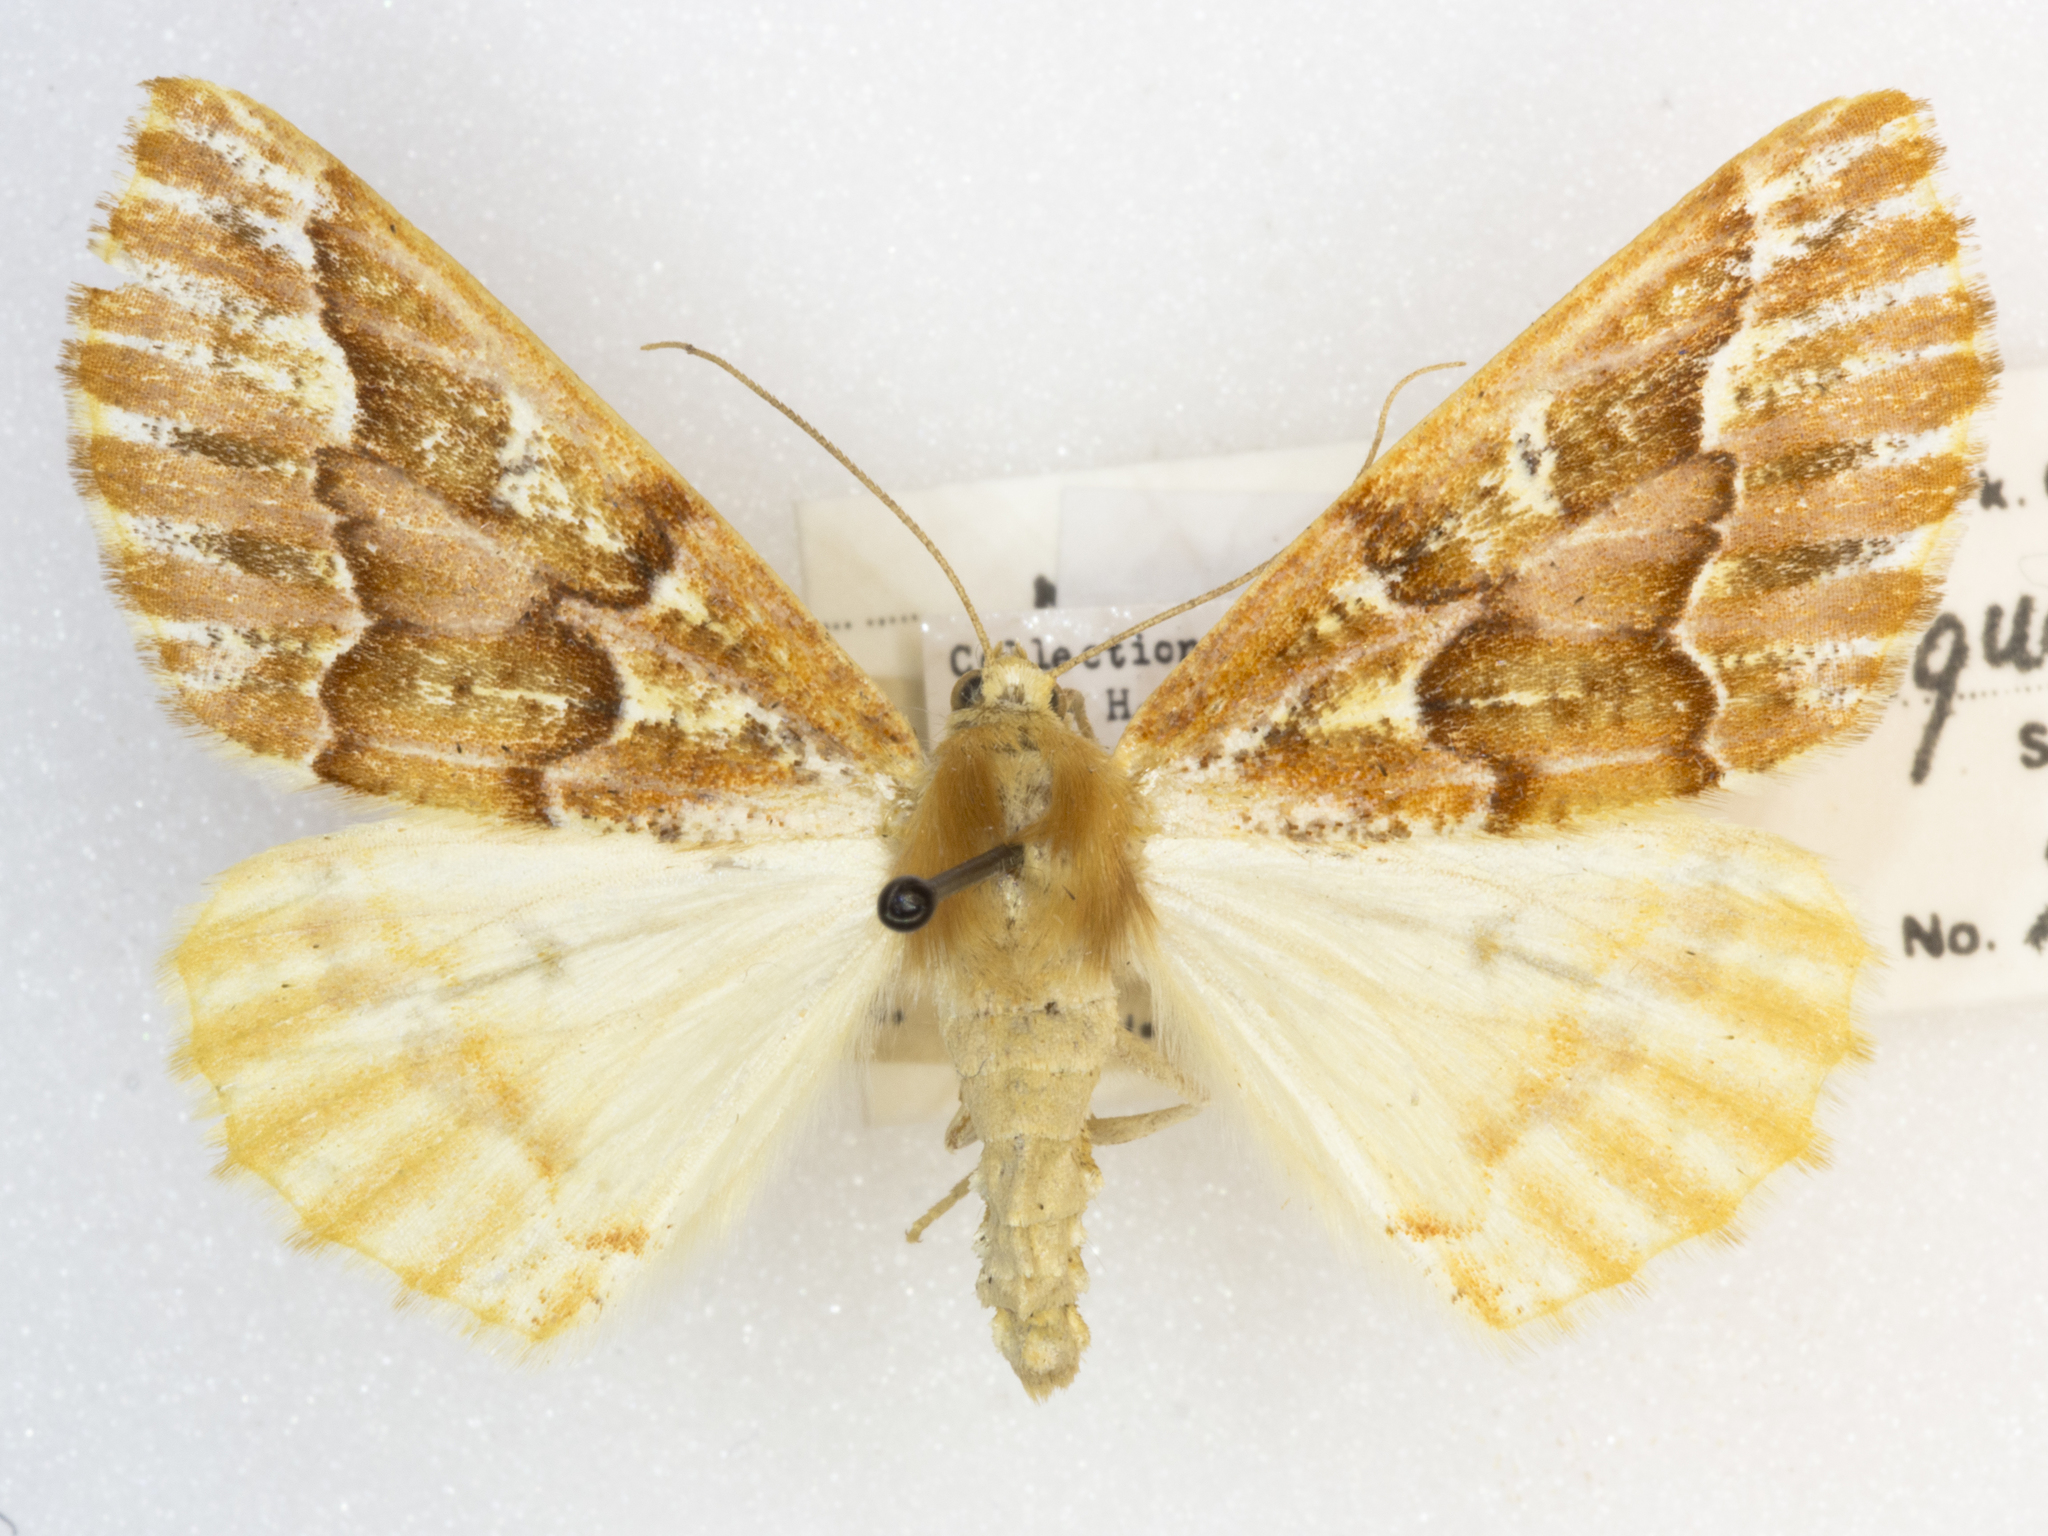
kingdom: Animalia
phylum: Arthropoda
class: Insecta
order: Lepidoptera
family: Geometridae
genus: Caripeta
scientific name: Caripeta piniata
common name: Northern pine looper moth
